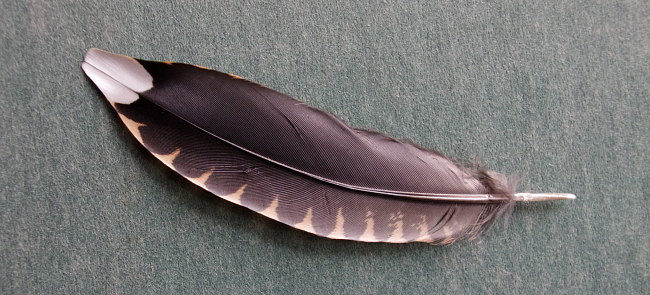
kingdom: Animalia
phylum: Chordata
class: Aves
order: Charadriiformes
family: Scolopacidae
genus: Scolopax
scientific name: Scolopax rusticola
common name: Eurasian woodcock
